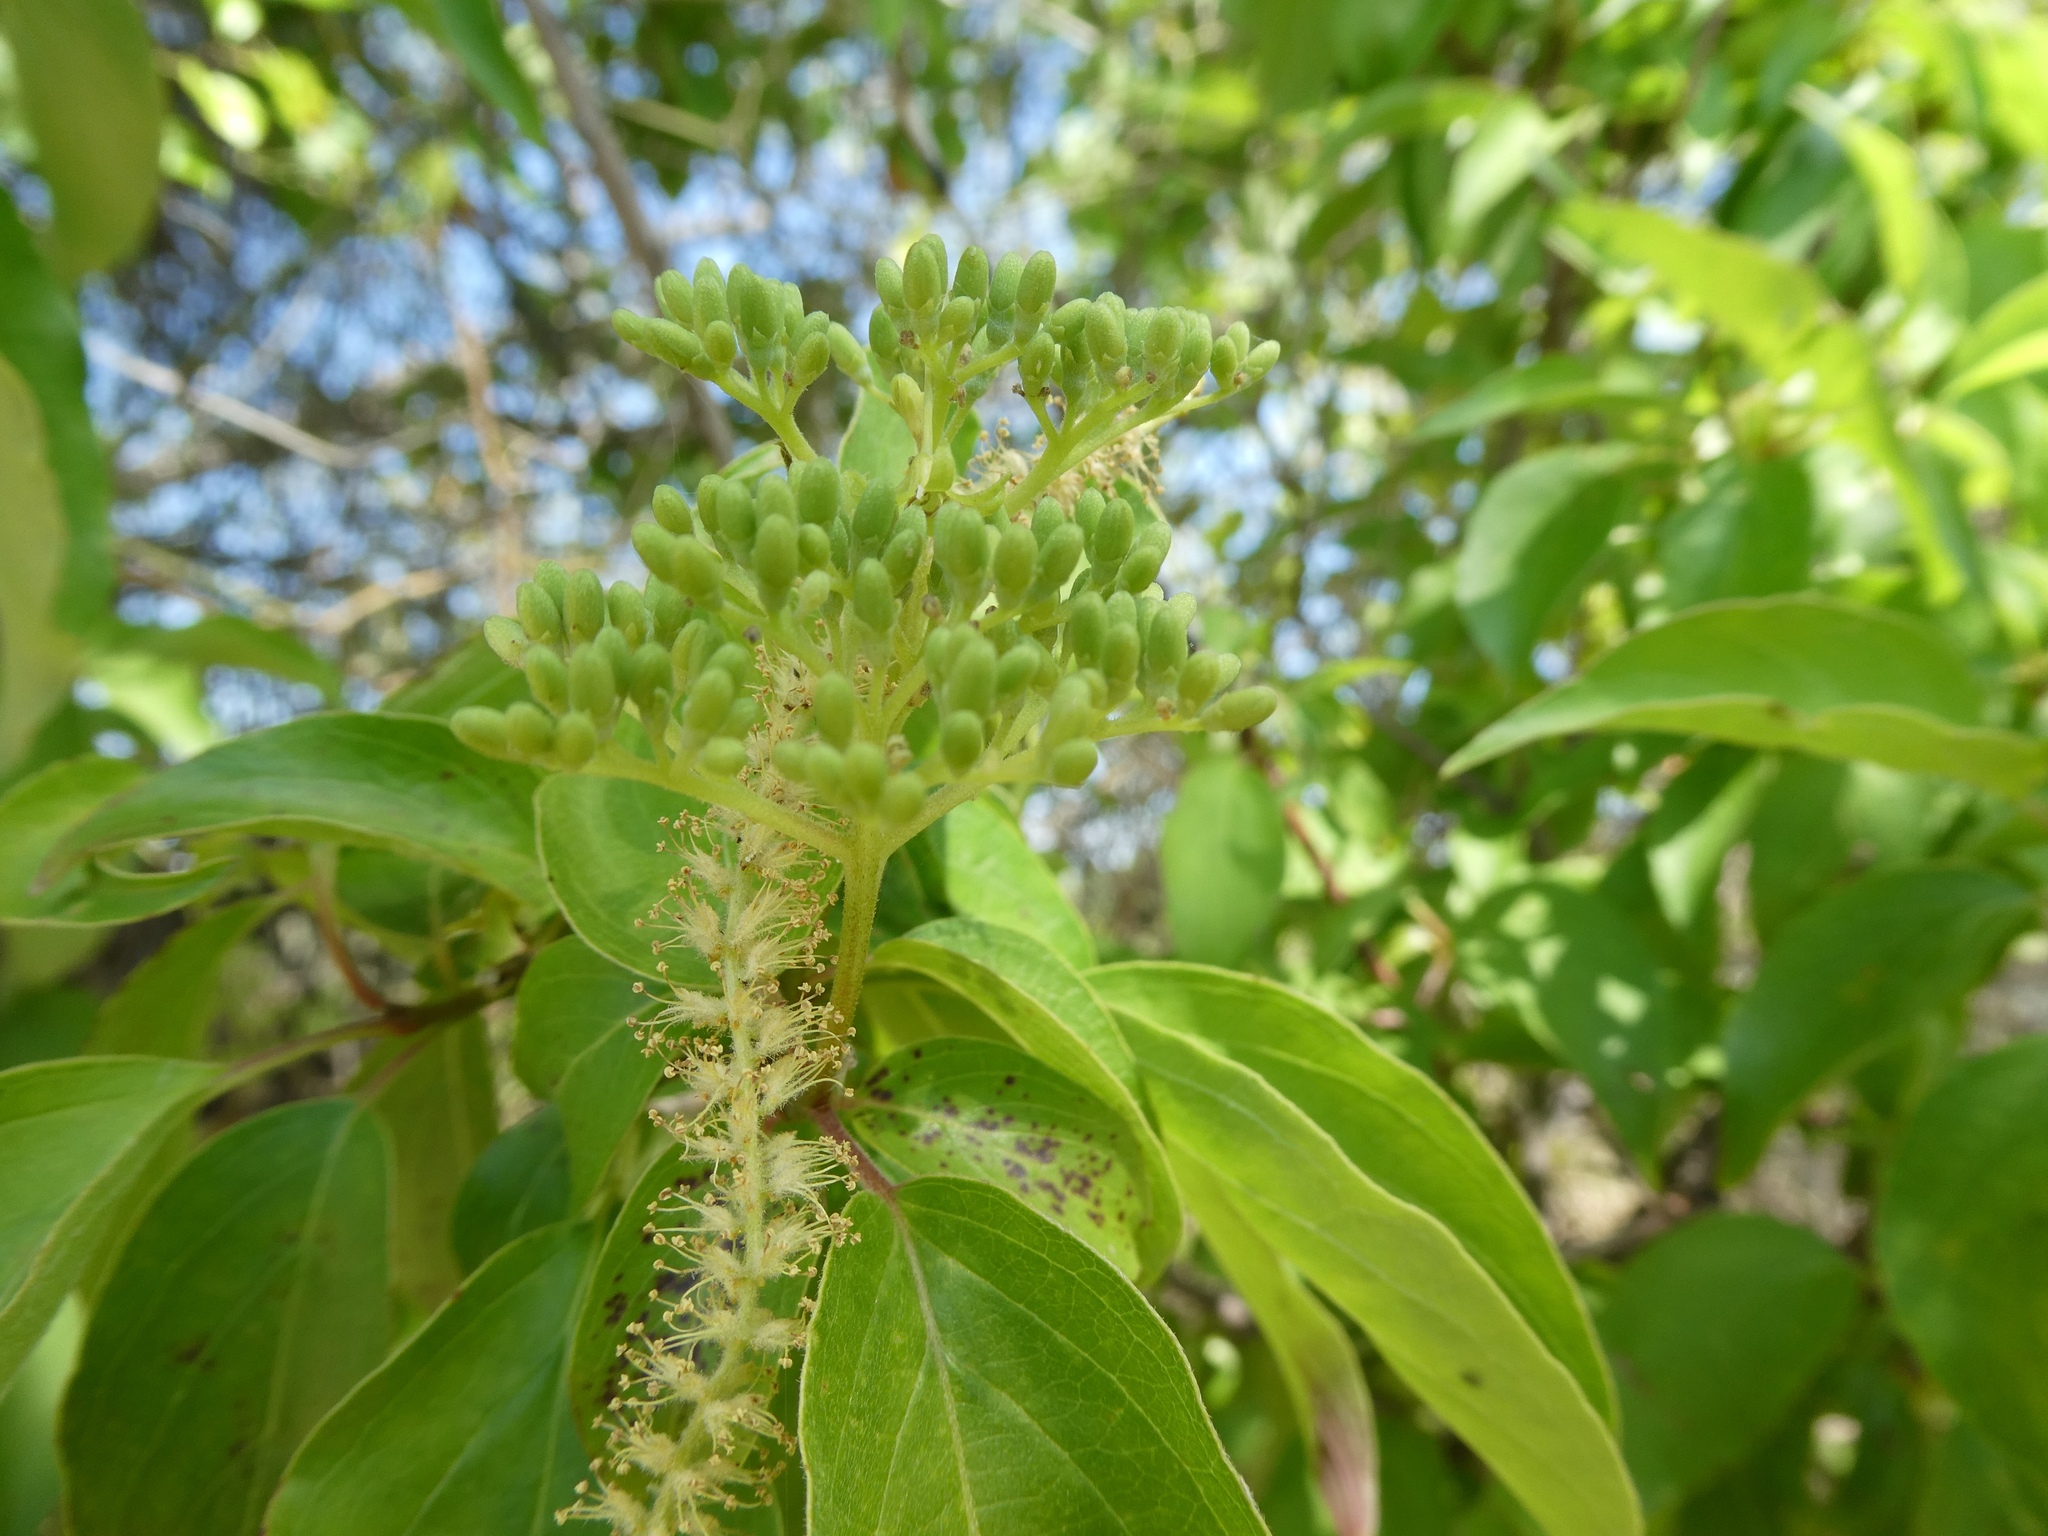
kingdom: Plantae
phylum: Tracheophyta
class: Magnoliopsida
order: Cornales
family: Cornaceae
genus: Cornus
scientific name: Cornus drummondii
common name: Rough-leaf dogwood
